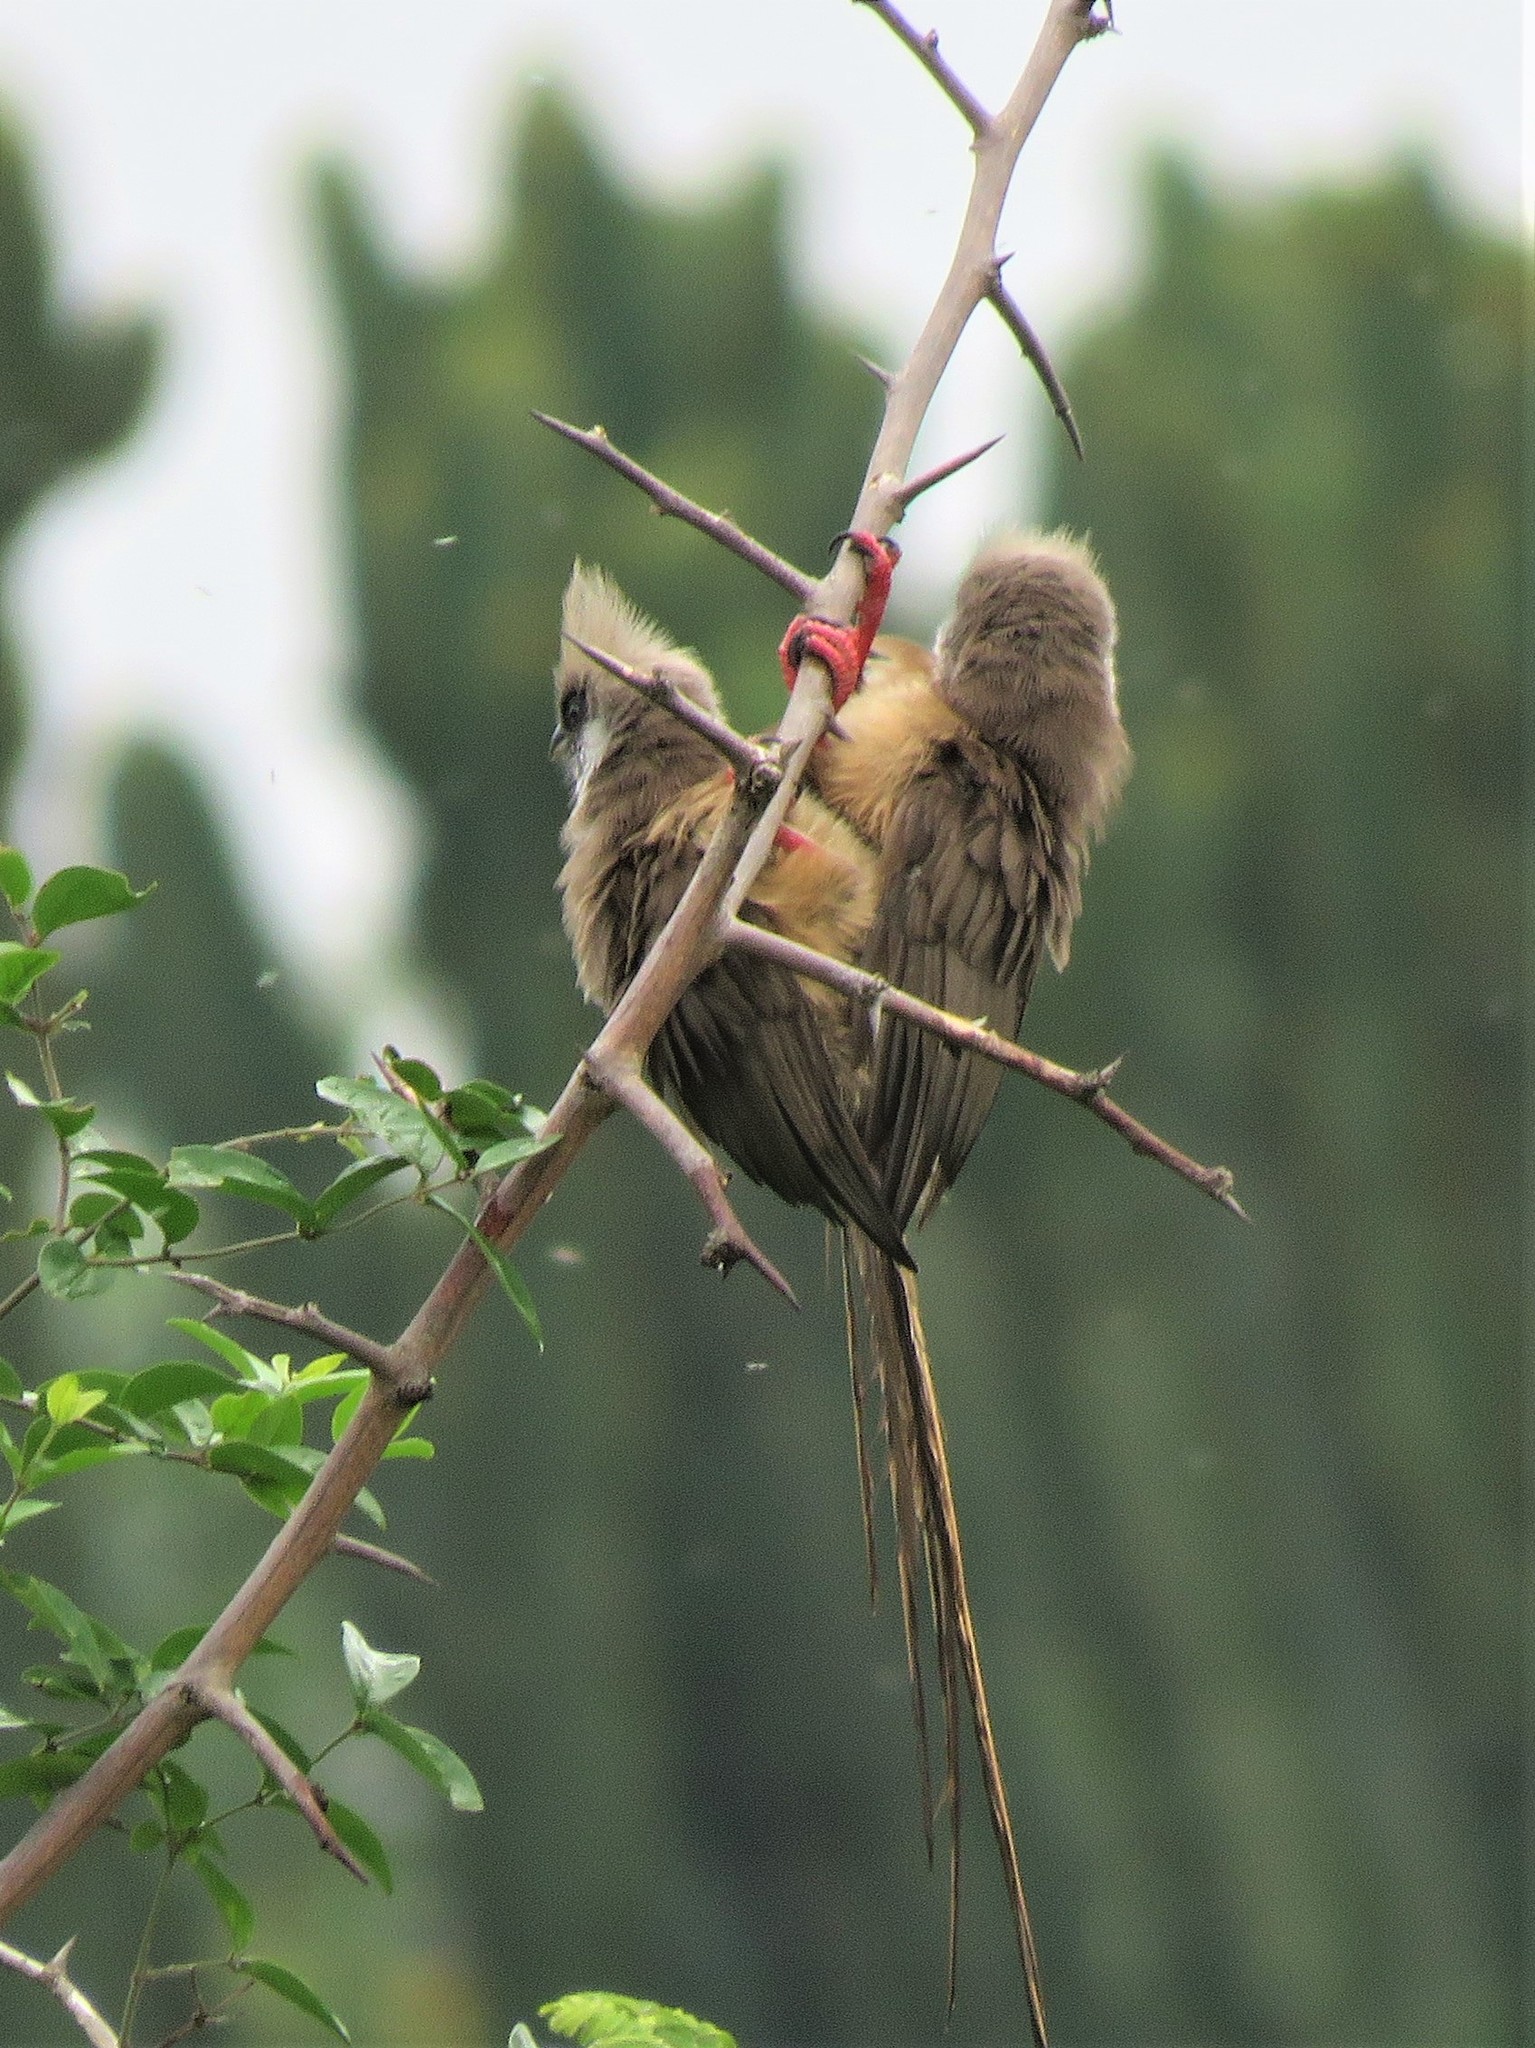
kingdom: Animalia
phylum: Chordata
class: Aves
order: Coliiformes
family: Coliidae
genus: Colius
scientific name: Colius striatus
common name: Speckled mousebird
